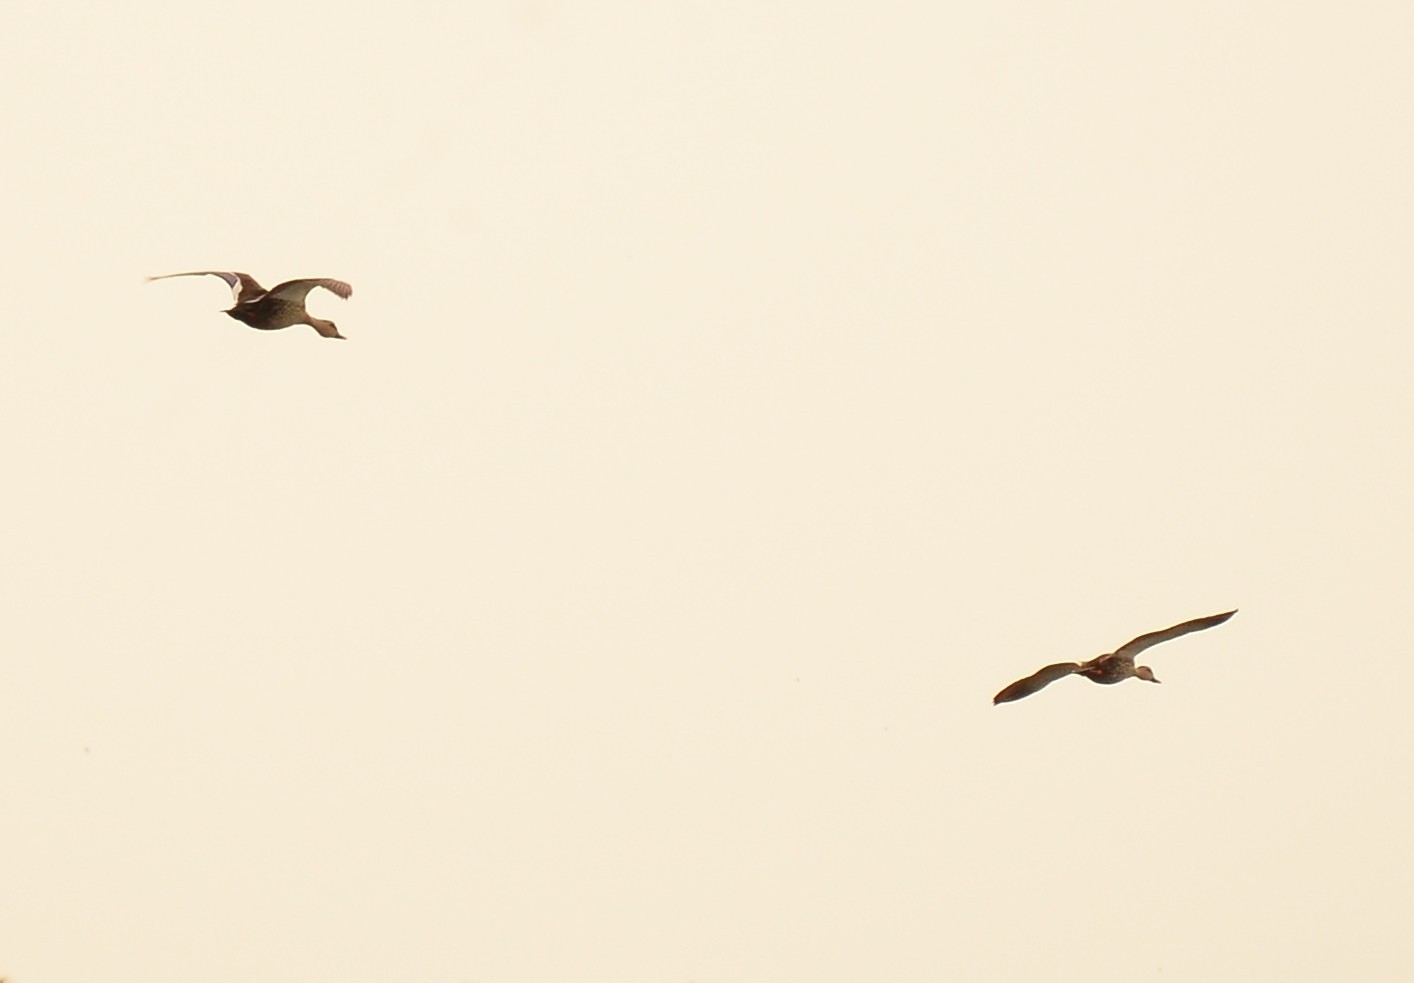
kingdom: Animalia
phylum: Chordata
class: Aves
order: Anseriformes
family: Anatidae
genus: Anas
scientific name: Anas poecilorhyncha
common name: Indian spot-billed duck
